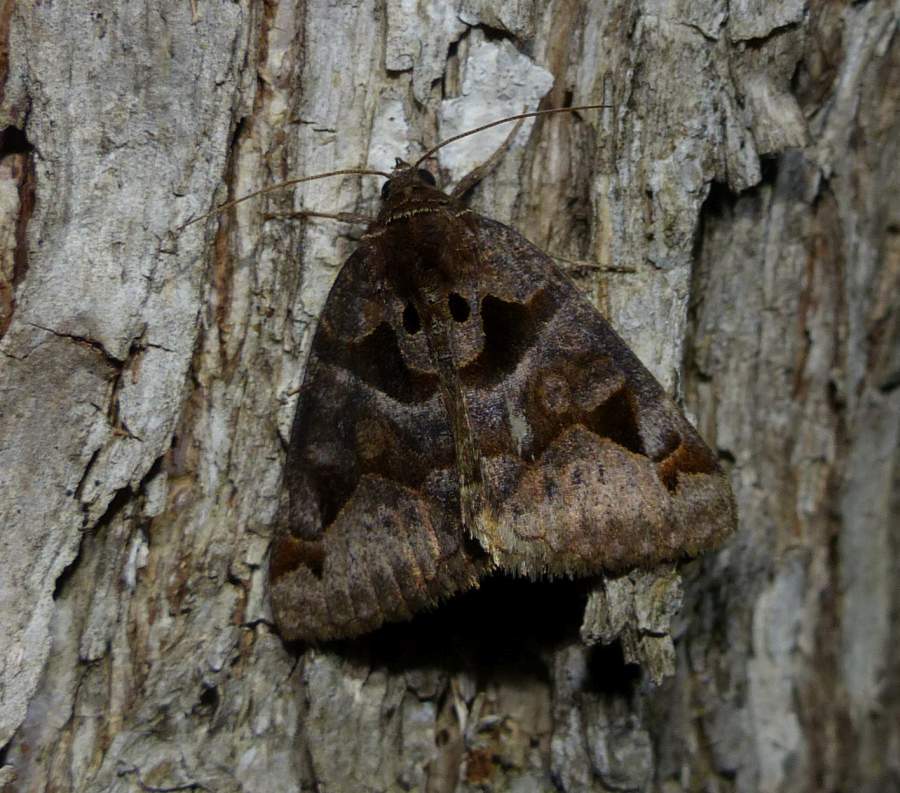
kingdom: Animalia
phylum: Arthropoda
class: Insecta
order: Lepidoptera
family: Erebidae
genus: Euclidia
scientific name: Euclidia cuspidea
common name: Toothed somberwing
